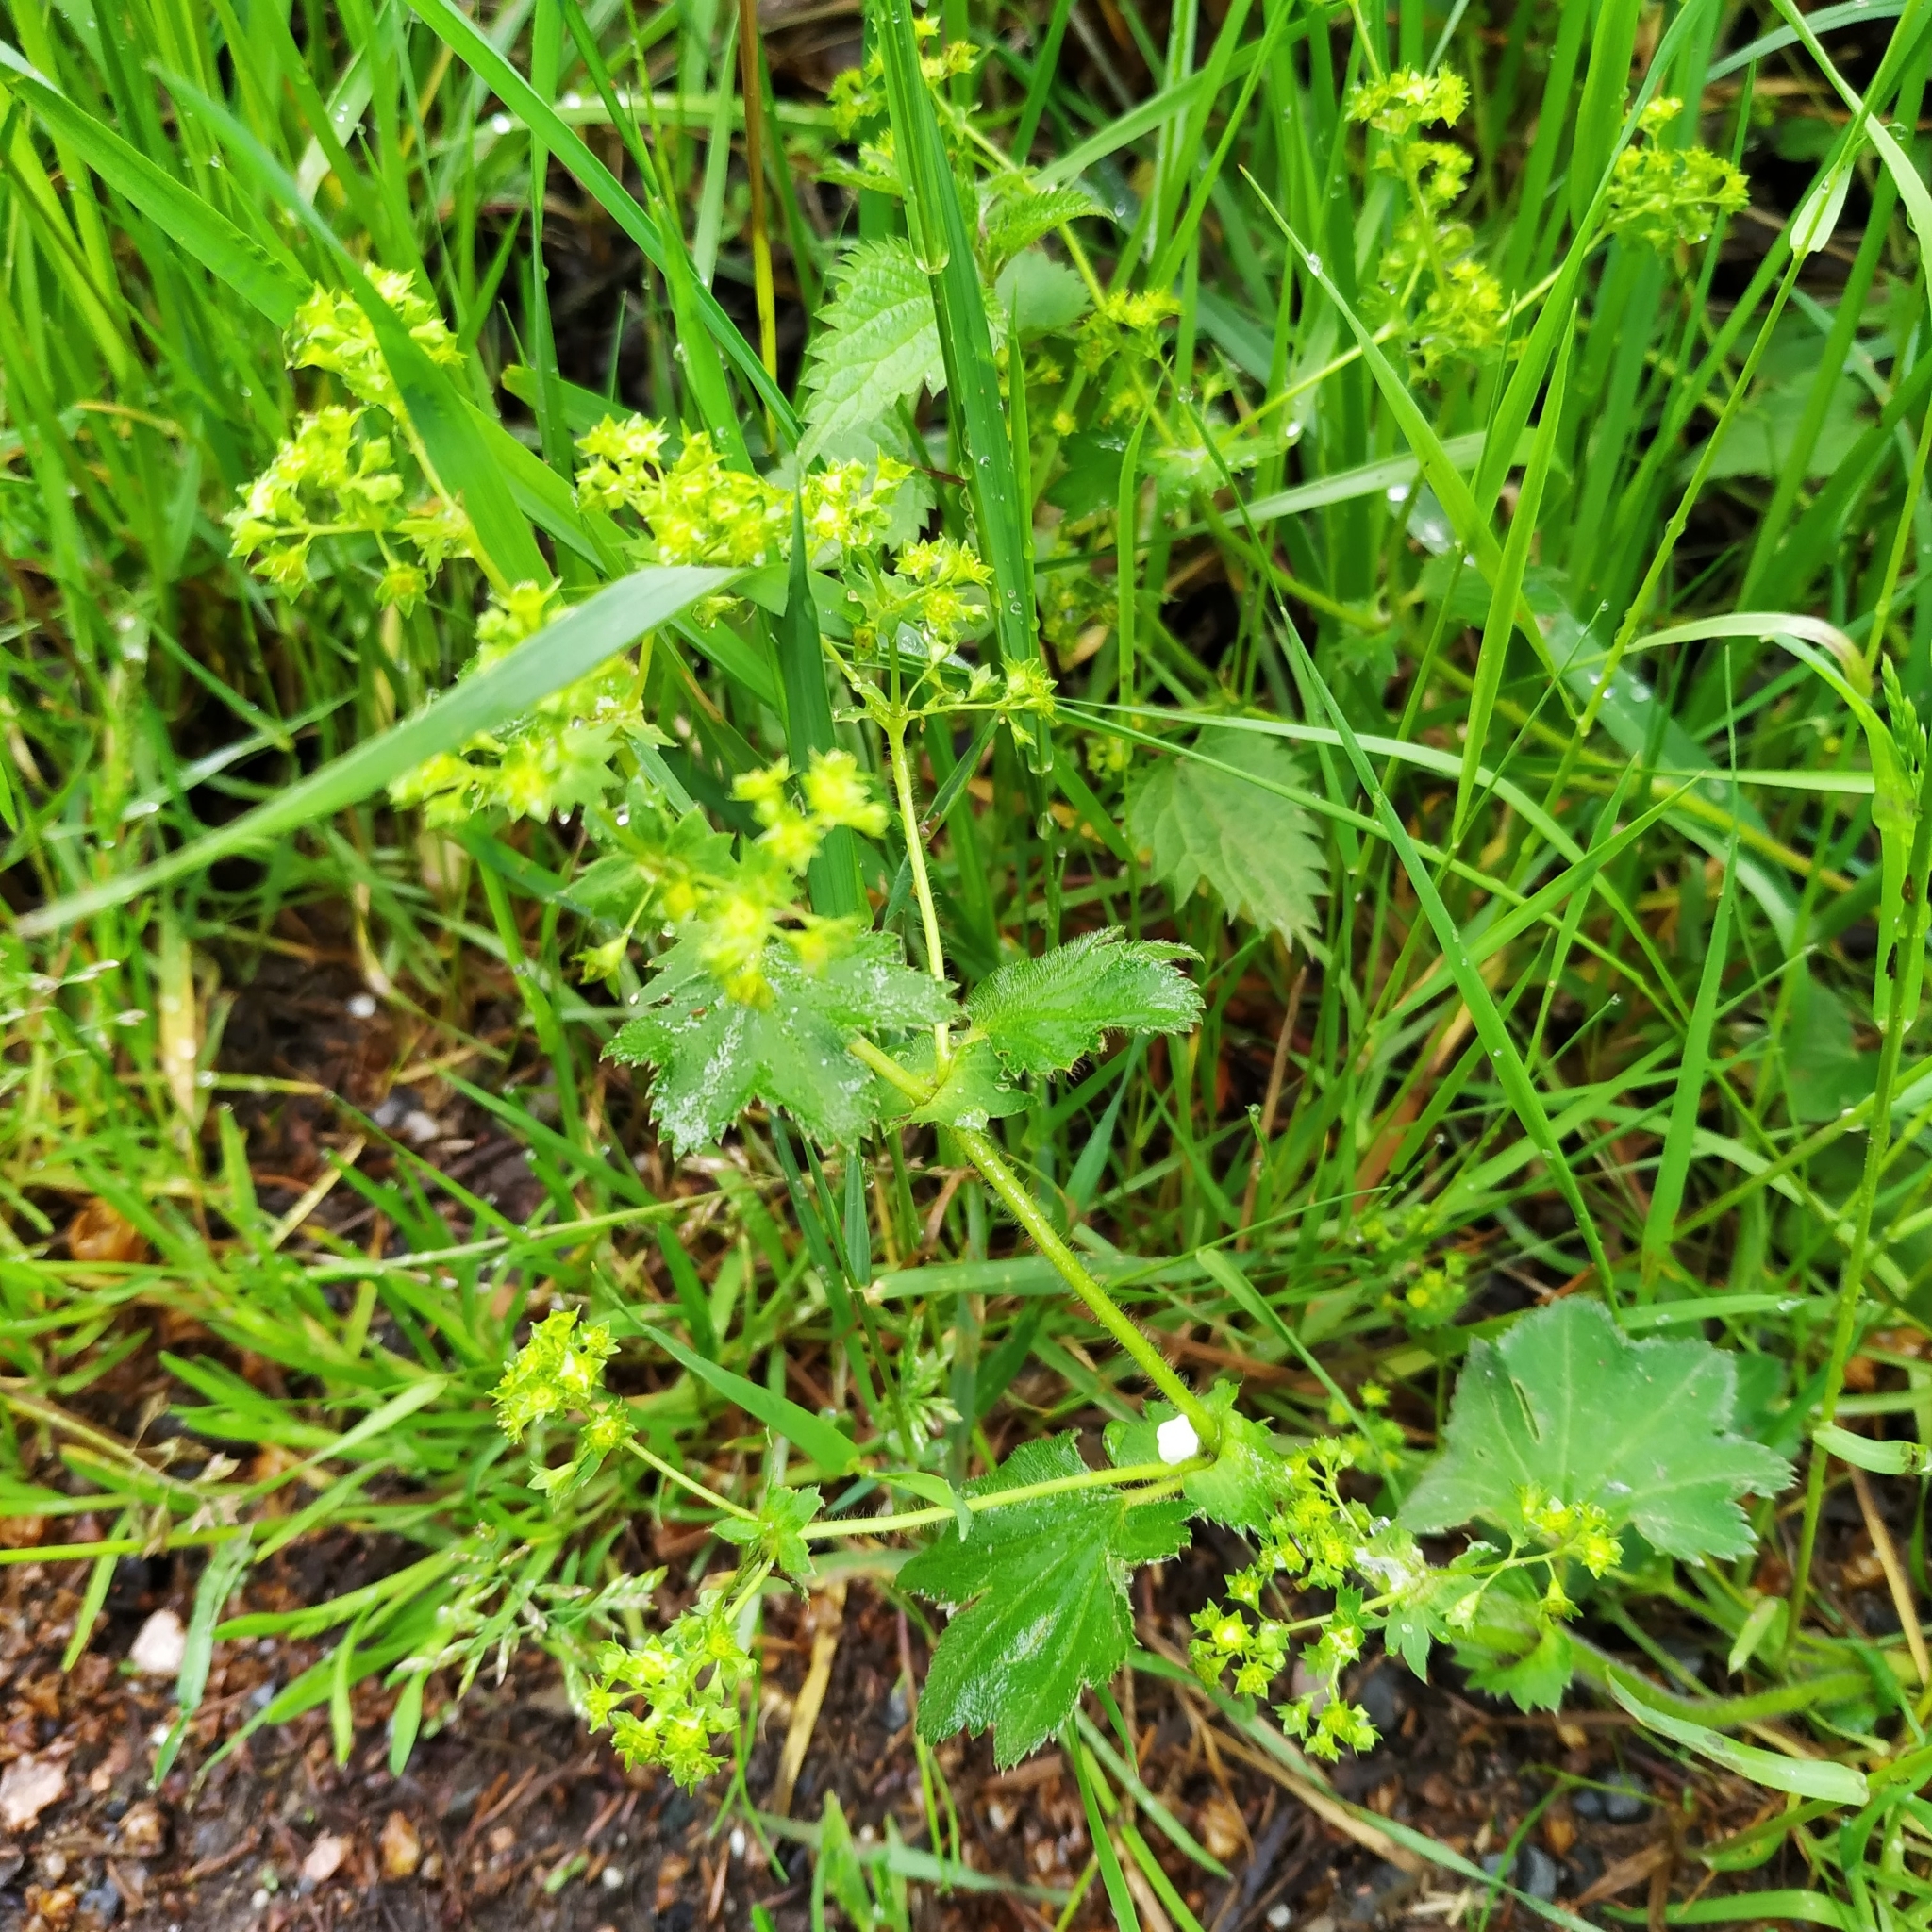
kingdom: Plantae
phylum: Tracheophyta
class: Magnoliopsida
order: Rosales
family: Rosaceae
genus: Alchemilla
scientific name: Alchemilla xanthochlora
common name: Intermediate lady's-mantle
